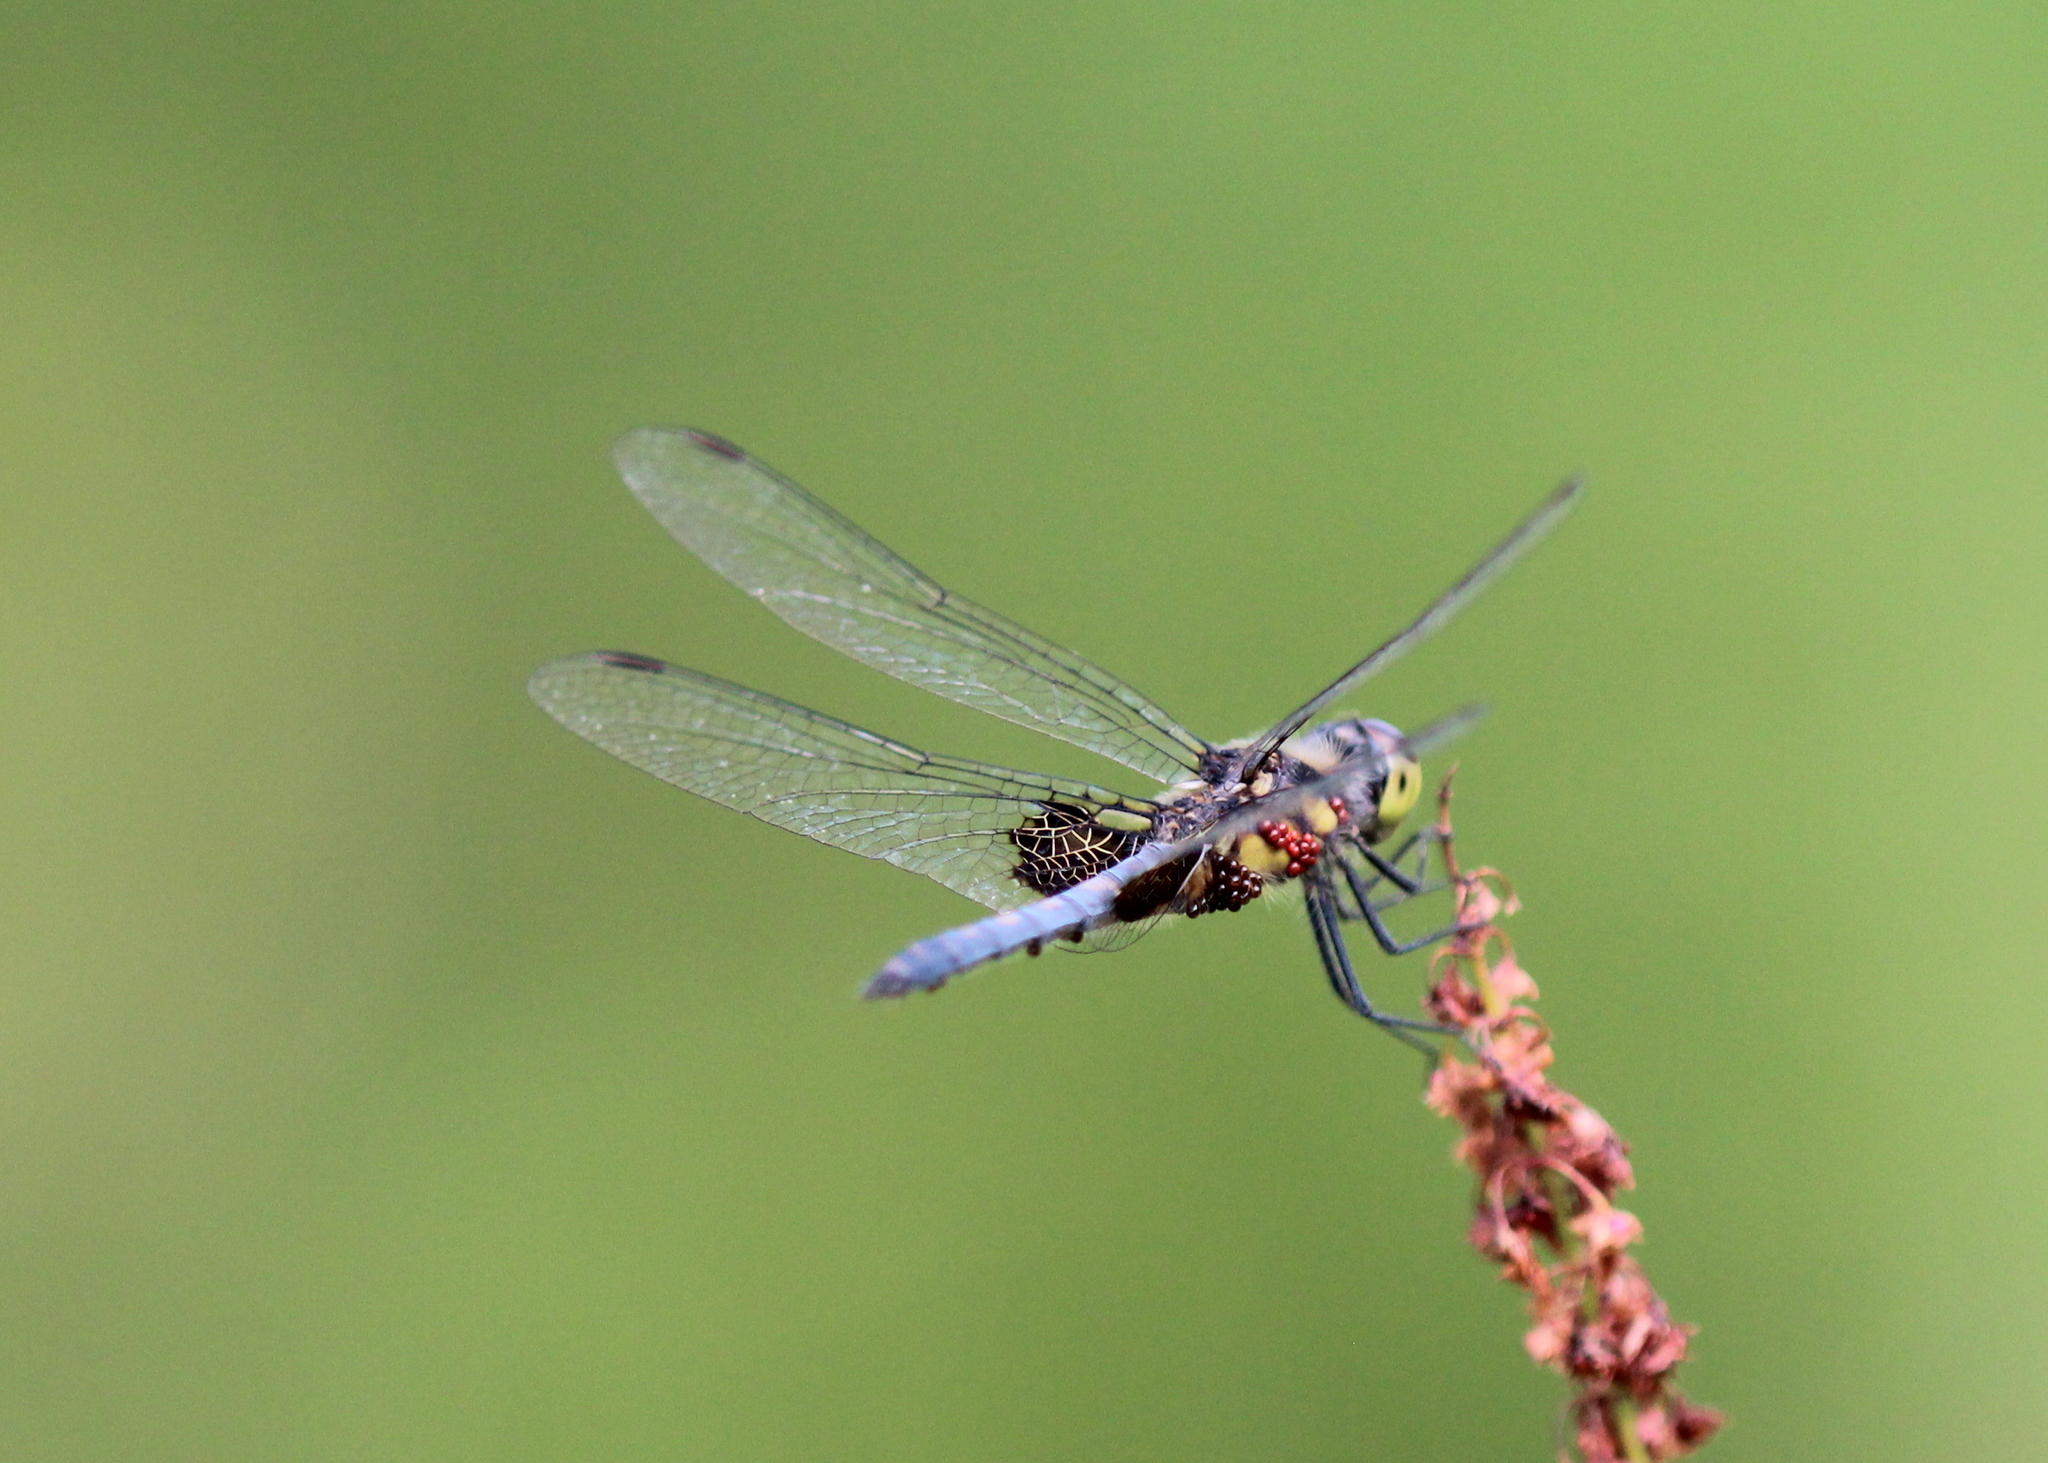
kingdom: Animalia
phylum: Arthropoda
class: Insecta
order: Odonata
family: Libellulidae
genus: Celithemis
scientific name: Celithemis martha
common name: Martha's pennant
